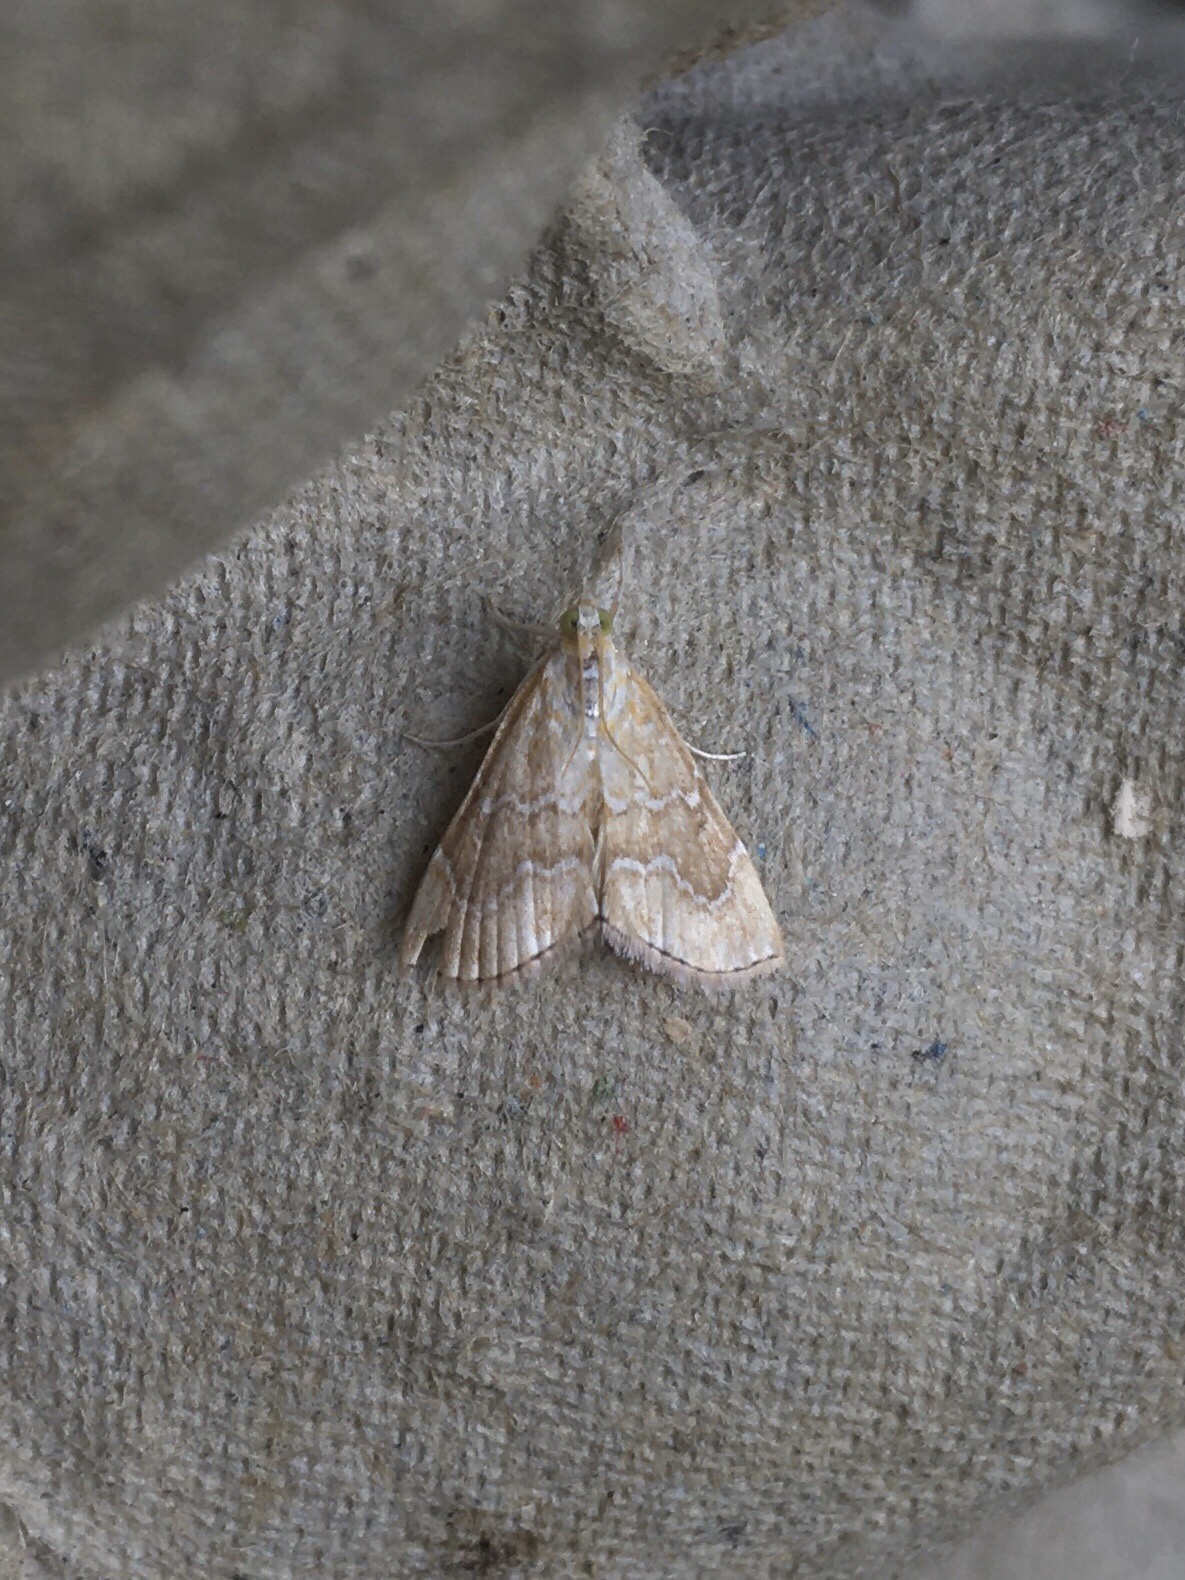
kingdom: Animalia
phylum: Arthropoda
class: Insecta
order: Lepidoptera
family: Crambidae
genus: Glaphyria
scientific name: Glaphyria sesquistrialis
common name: White-roped glaphyria
